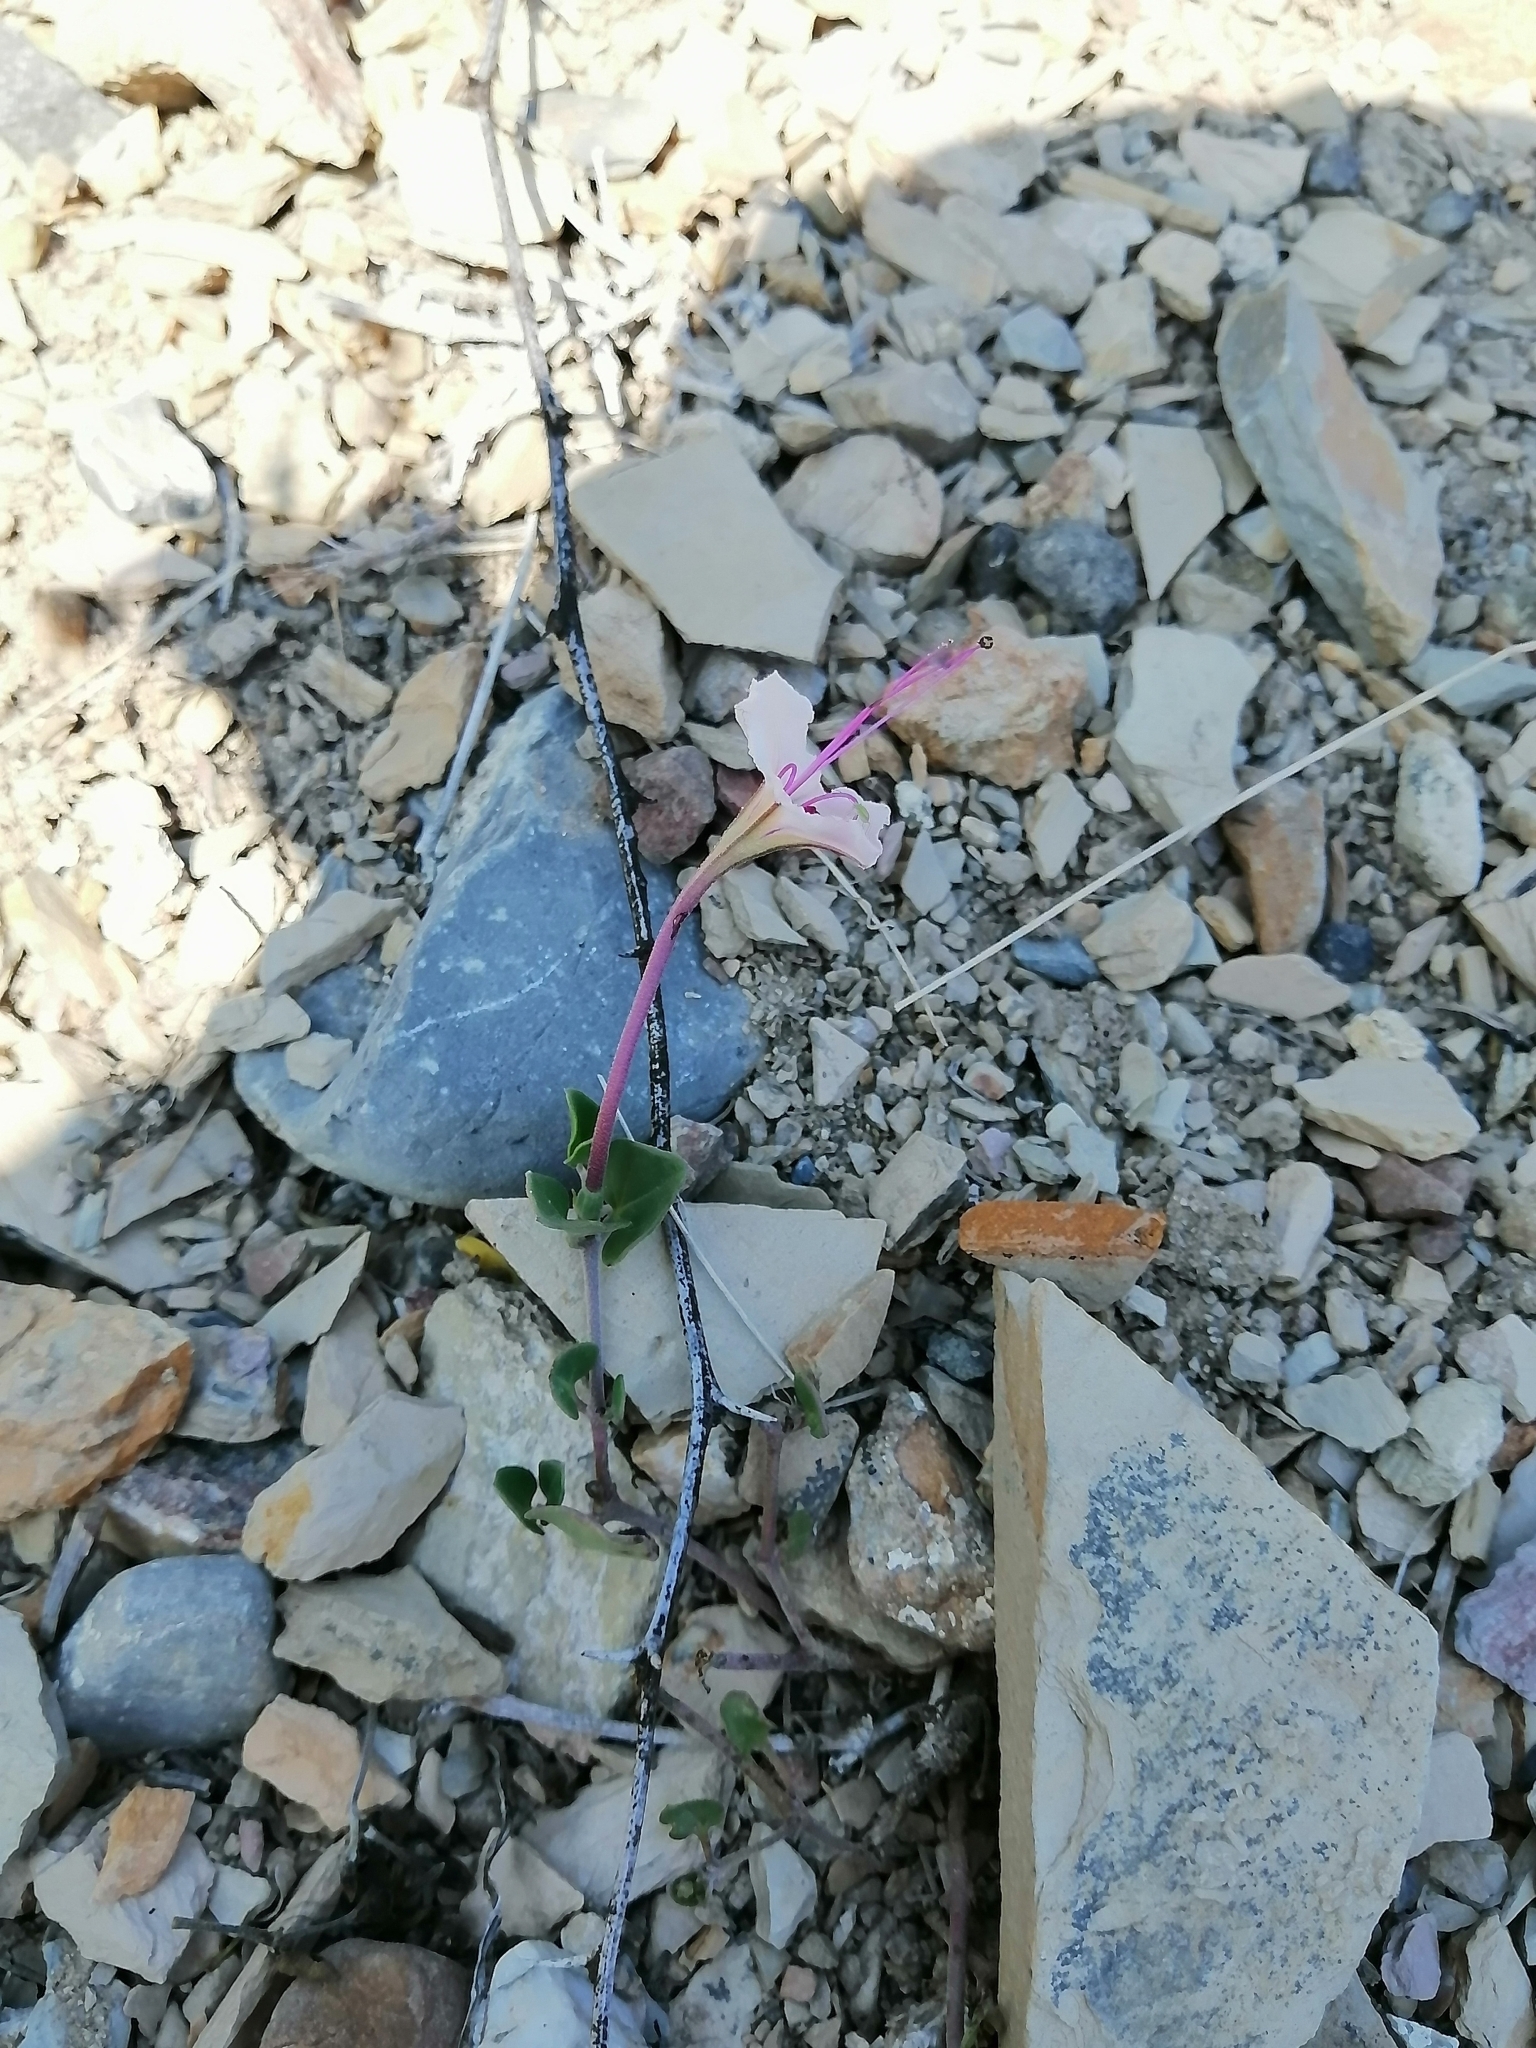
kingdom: Plantae
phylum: Tracheophyta
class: Magnoliopsida
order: Caryophyllales
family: Nyctaginaceae
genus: Acleisanthes
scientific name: Acleisanthes obtusa
